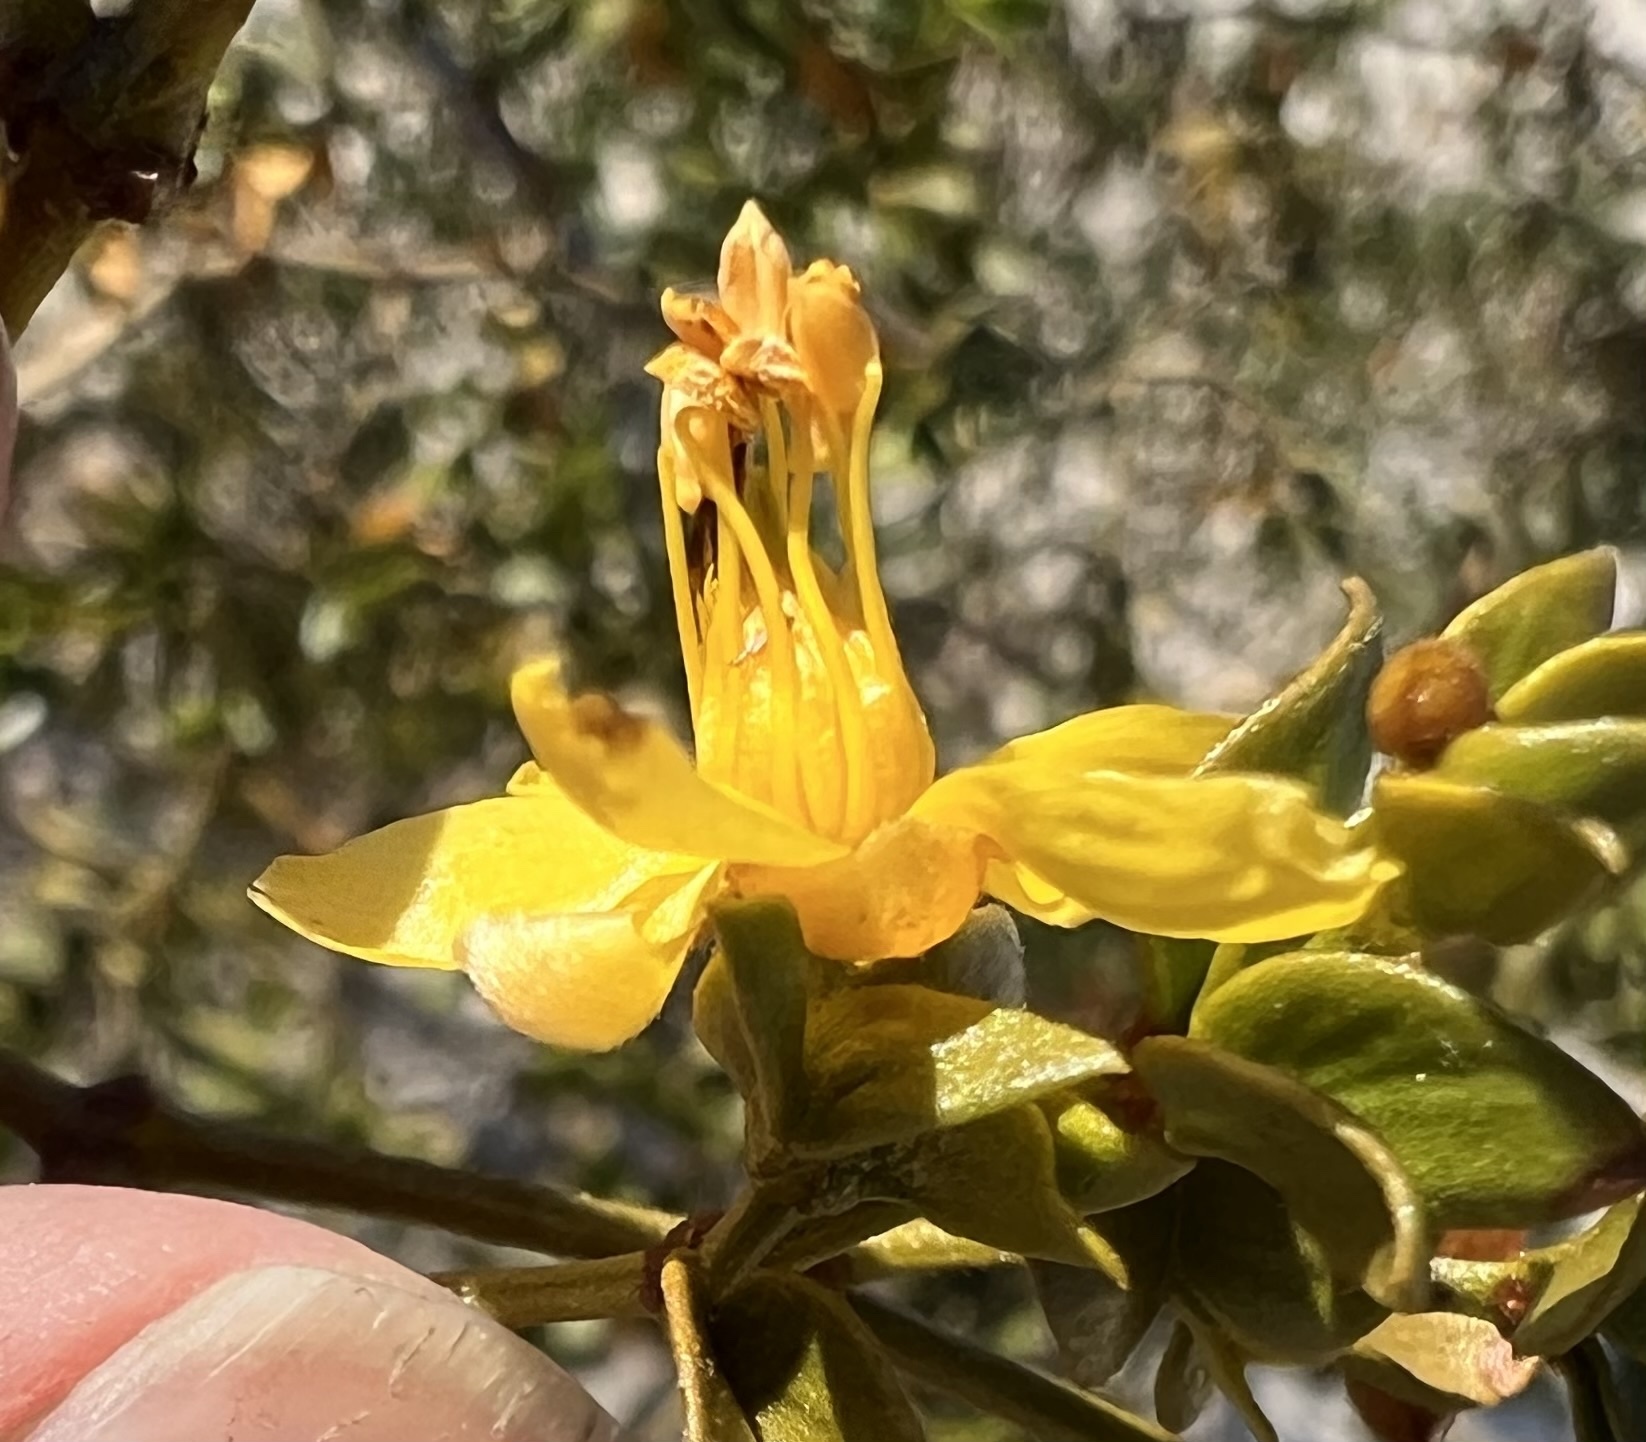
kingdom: Plantae
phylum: Tracheophyta
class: Magnoliopsida
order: Zygophyllales
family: Zygophyllaceae
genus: Larrea
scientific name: Larrea tridentata
